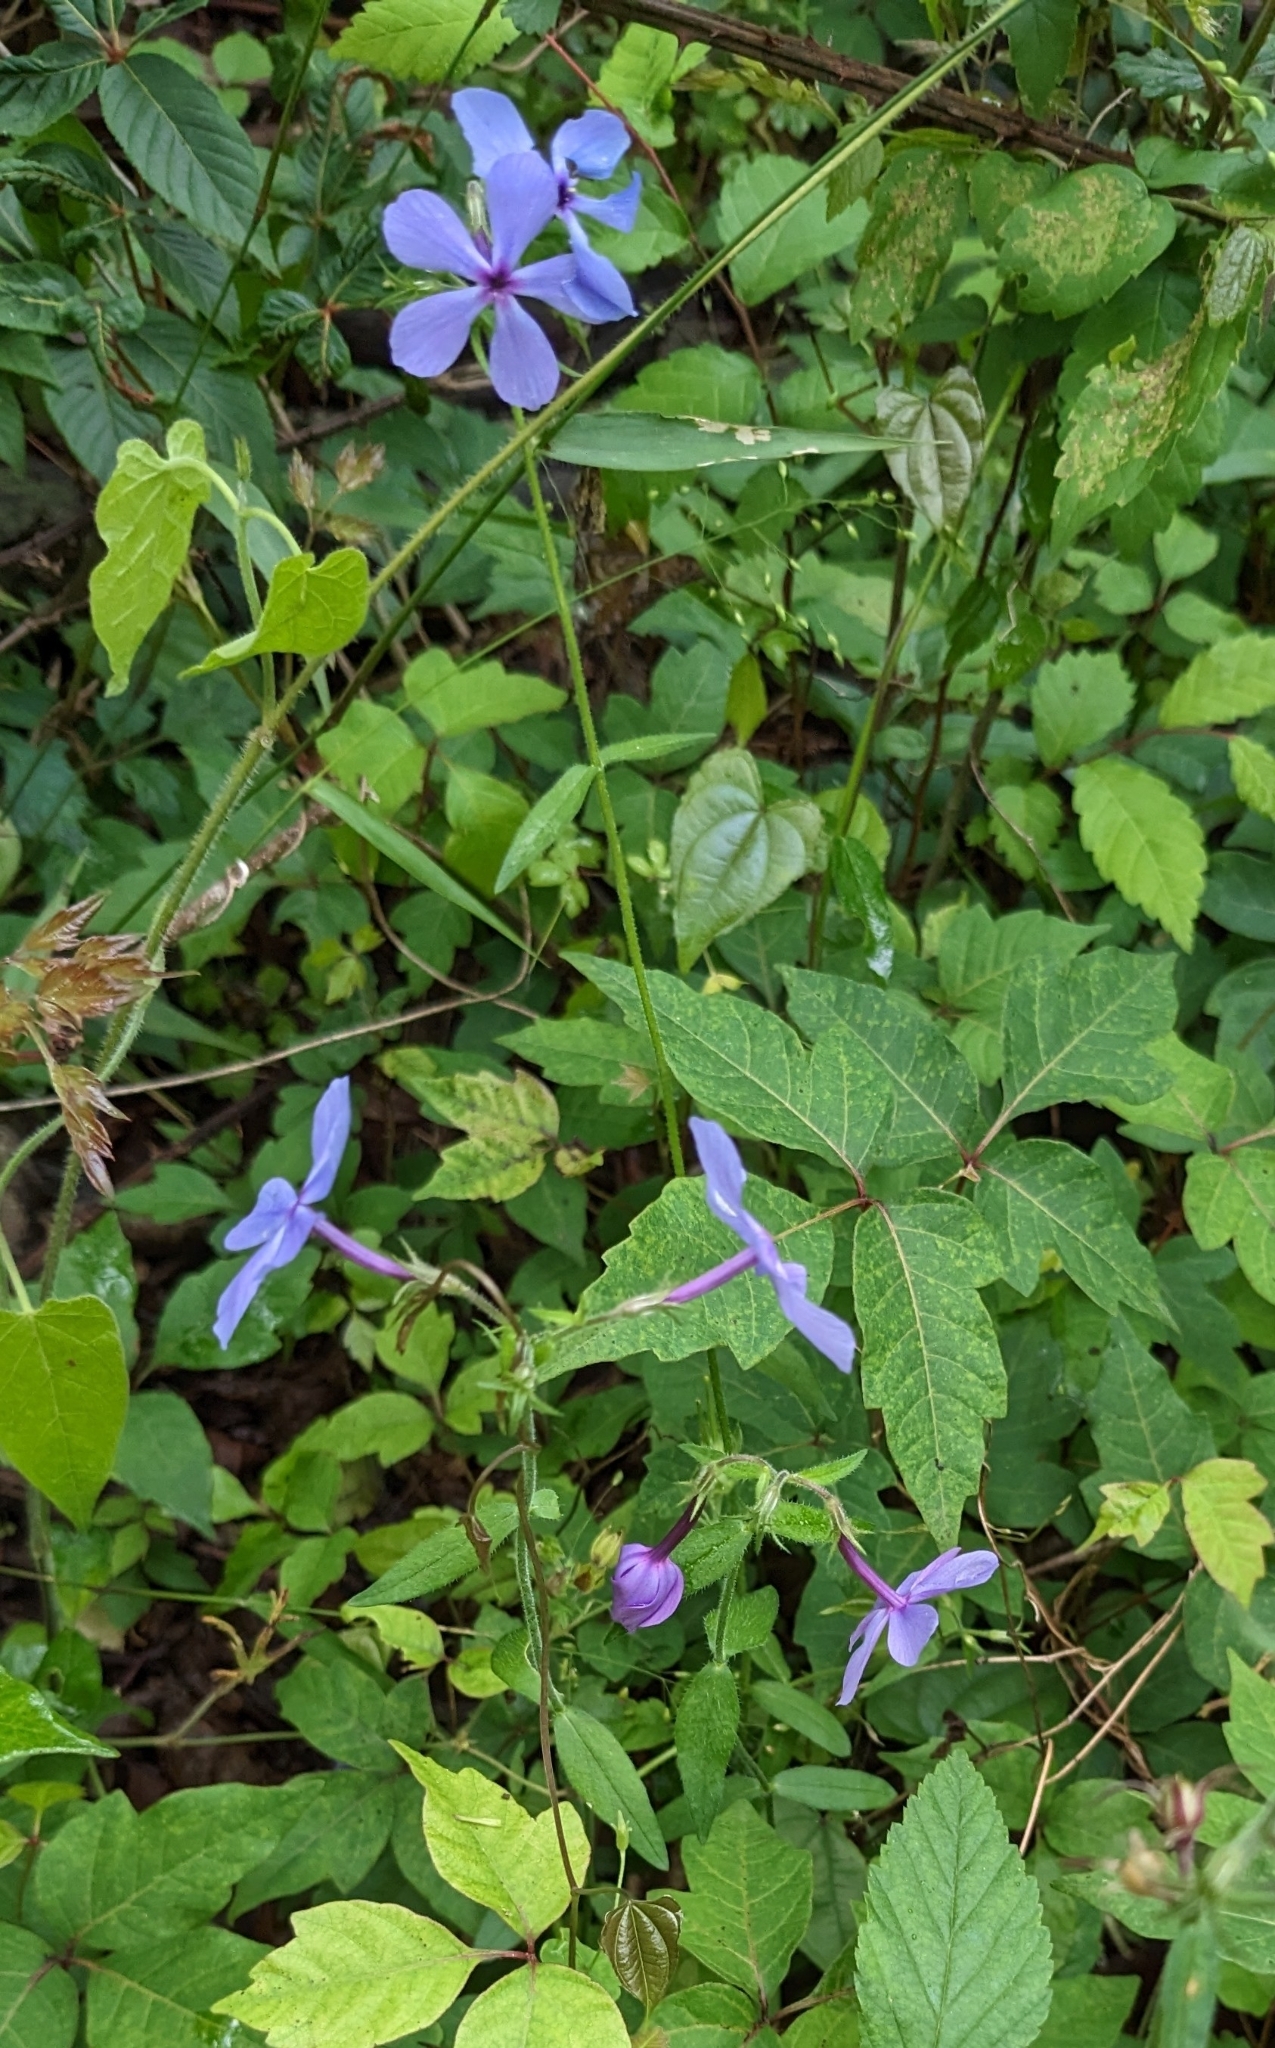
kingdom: Plantae
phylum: Tracheophyta
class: Magnoliopsida
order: Ericales
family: Polemoniaceae
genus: Phlox
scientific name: Phlox divaricata
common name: Blue phlox
